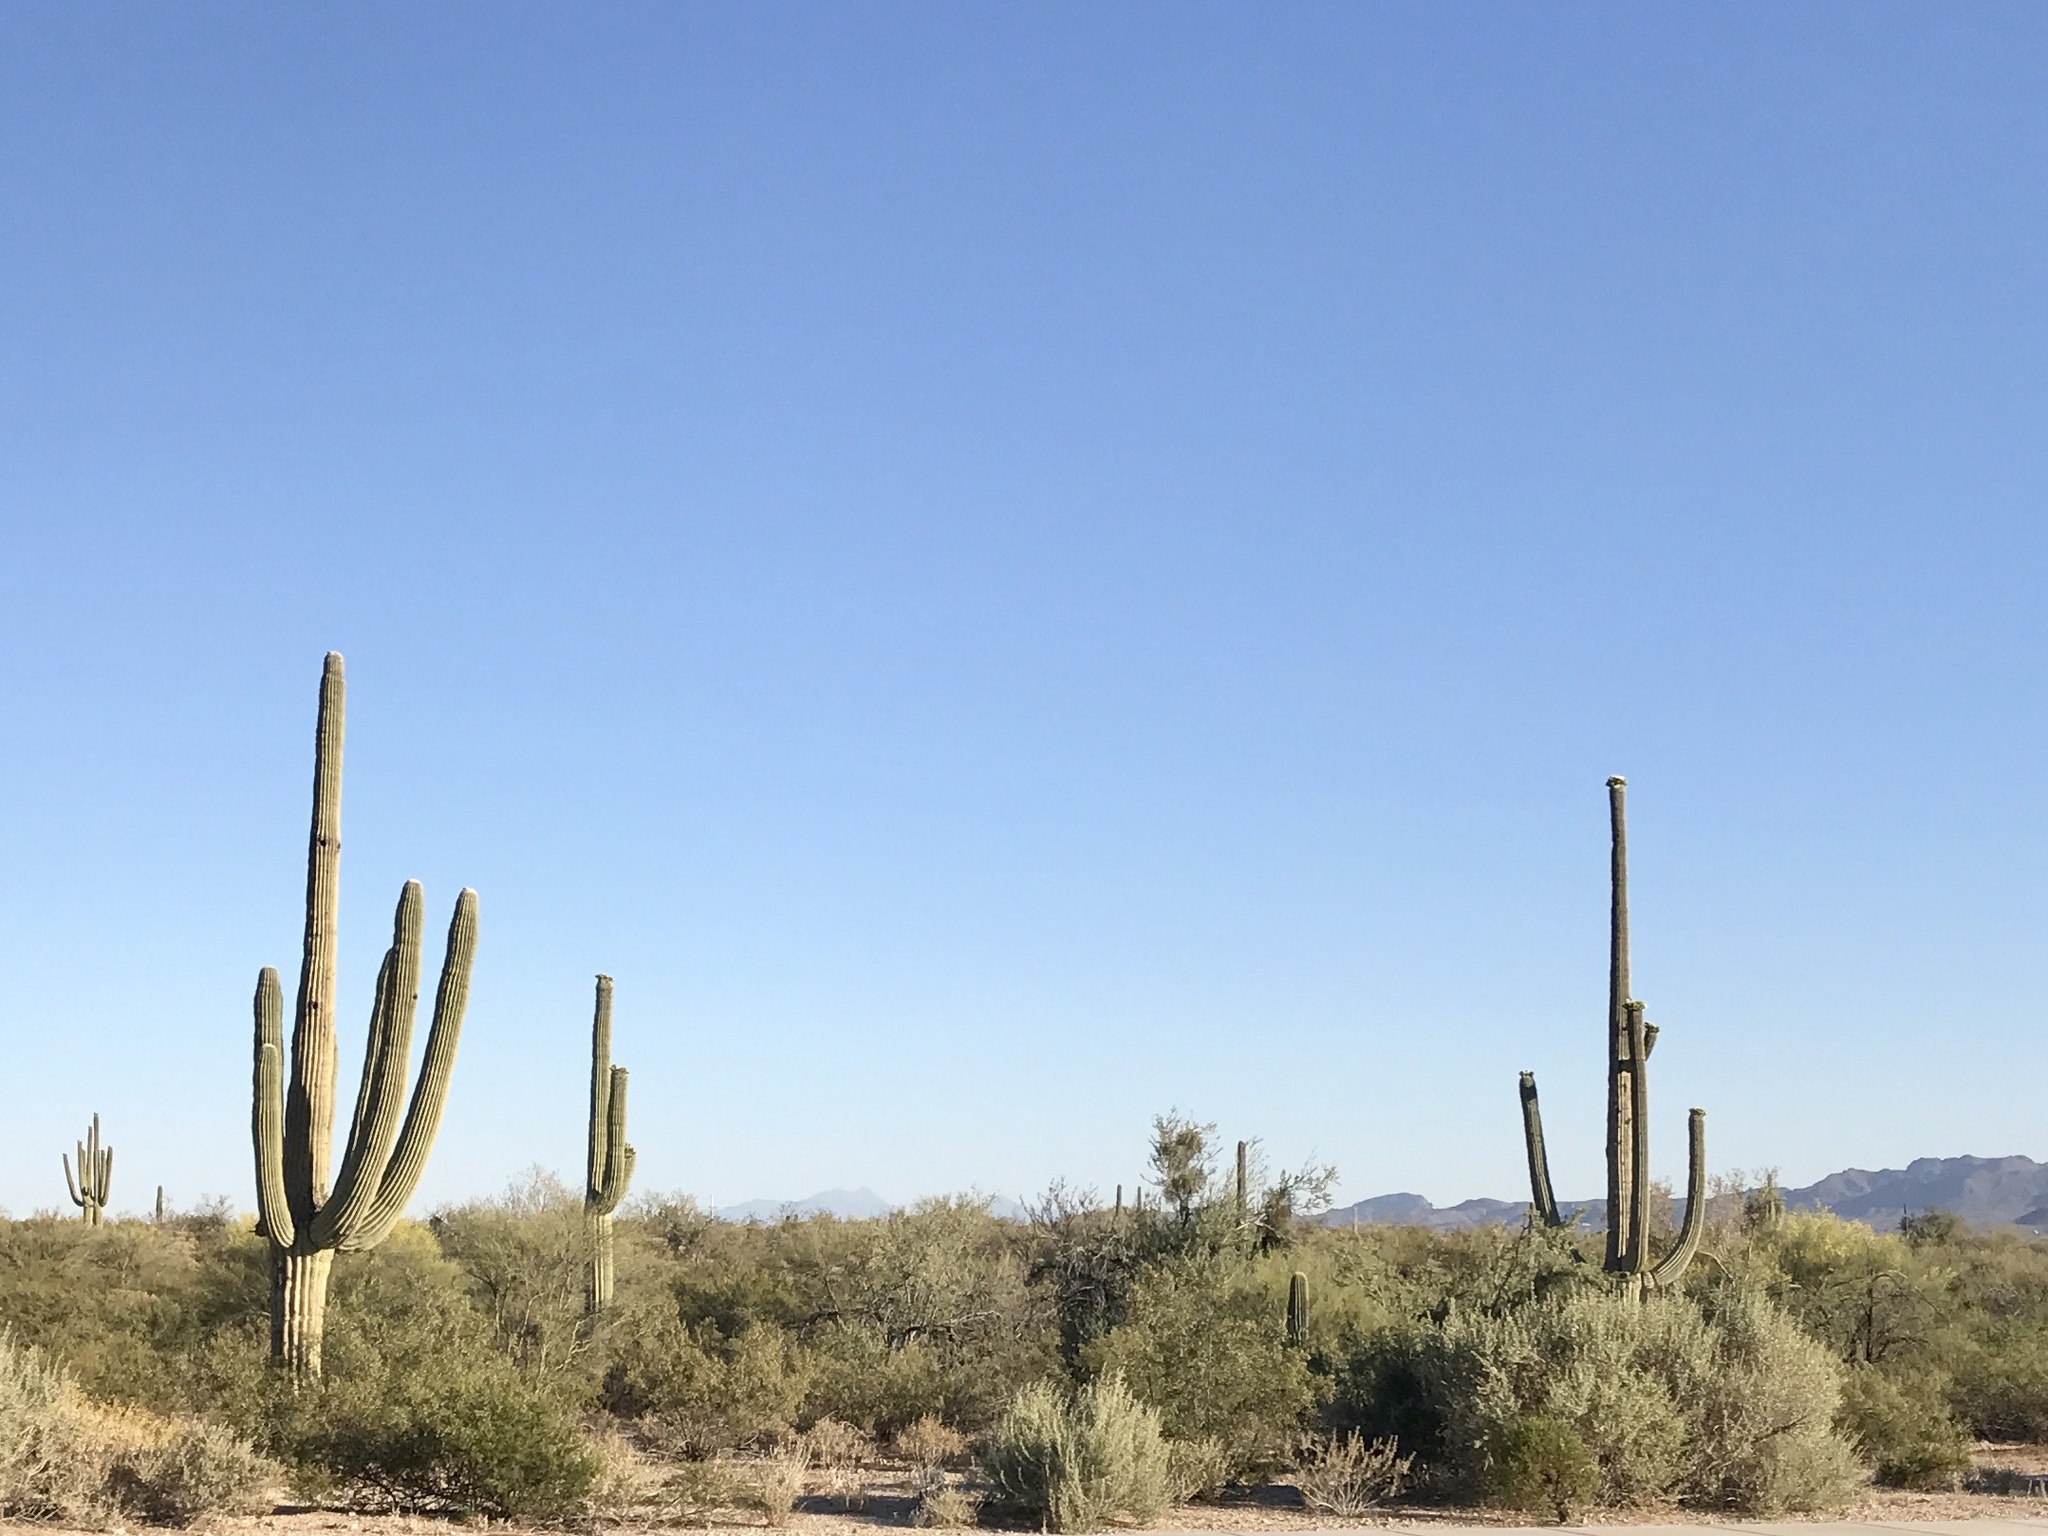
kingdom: Plantae
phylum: Tracheophyta
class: Magnoliopsida
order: Caryophyllales
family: Cactaceae
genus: Carnegiea
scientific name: Carnegiea gigantea
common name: Saguaro
